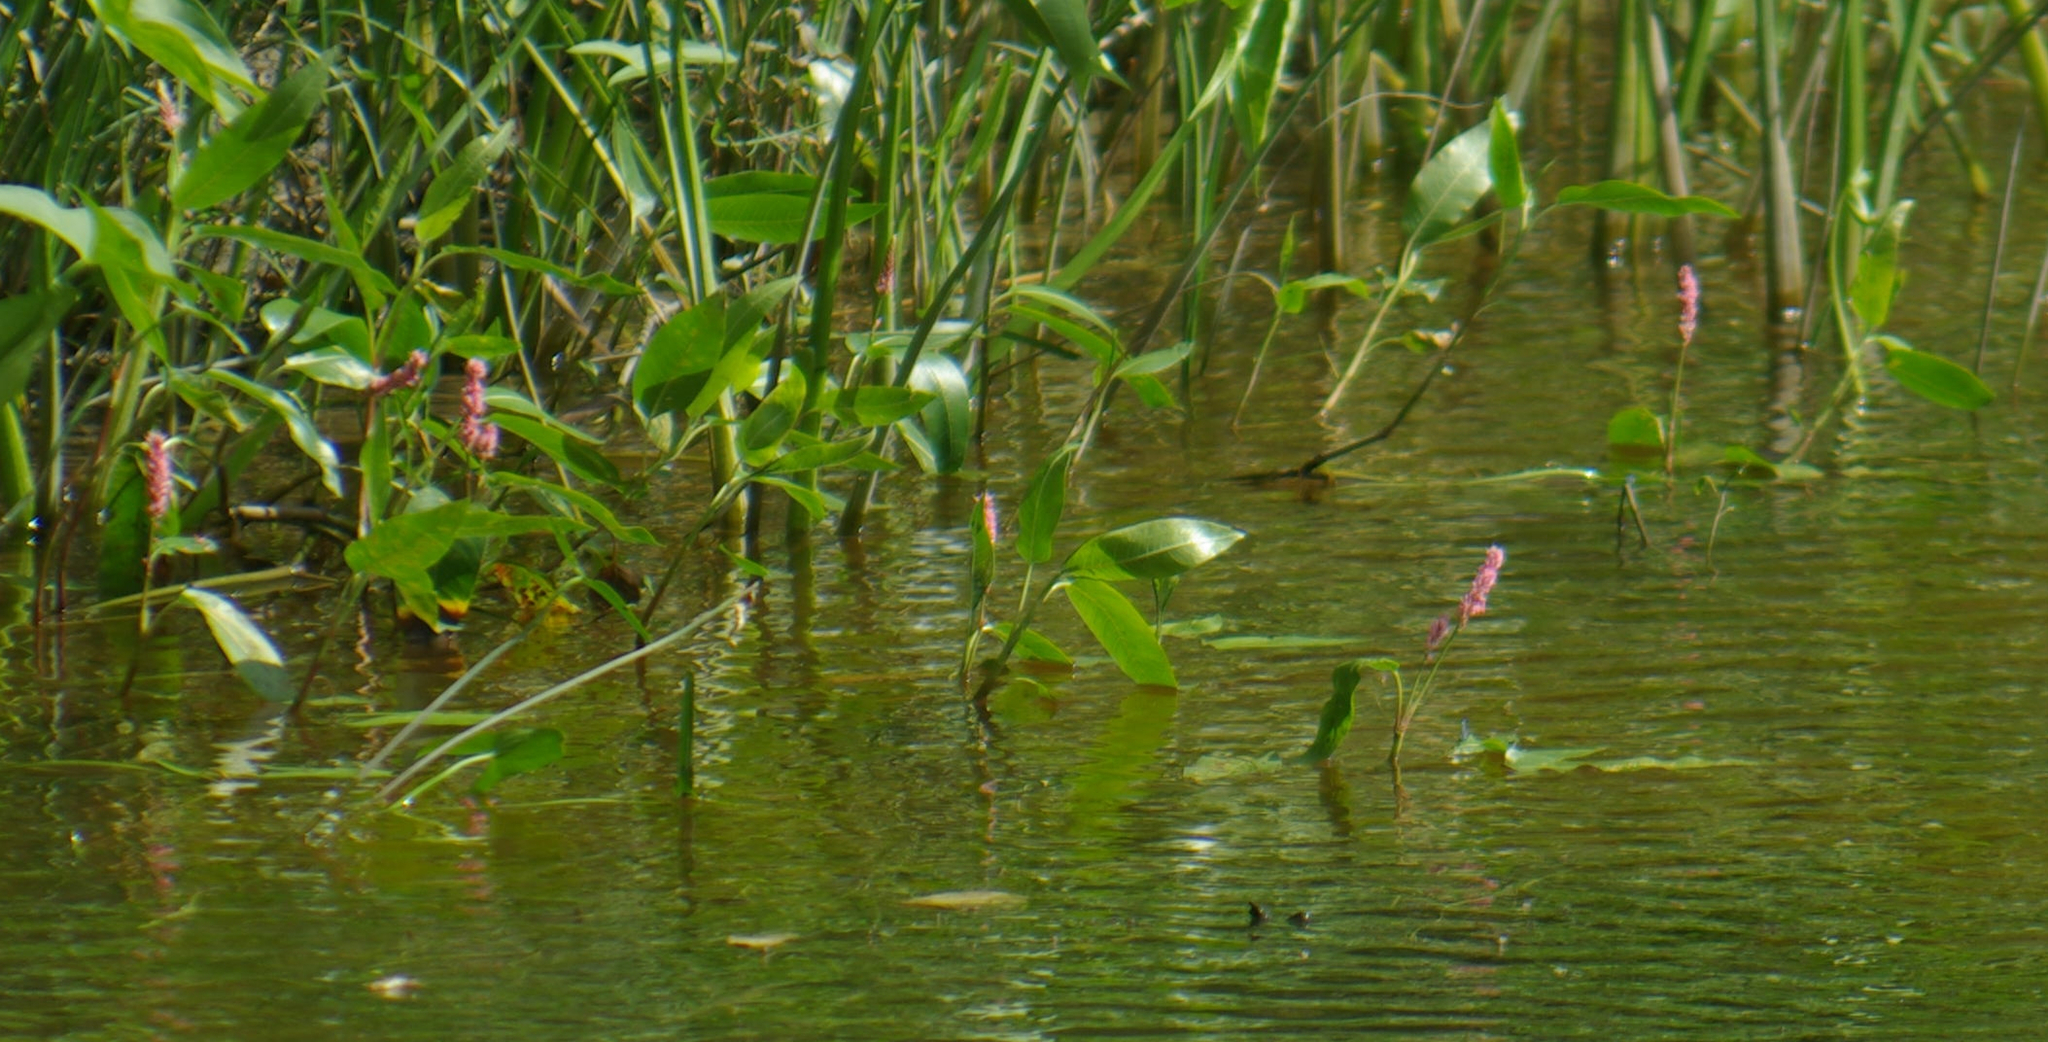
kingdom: Plantae
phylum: Tracheophyta
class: Magnoliopsida
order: Caryophyllales
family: Polygonaceae
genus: Persicaria
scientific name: Persicaria amphibia
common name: Amphibious bistort
